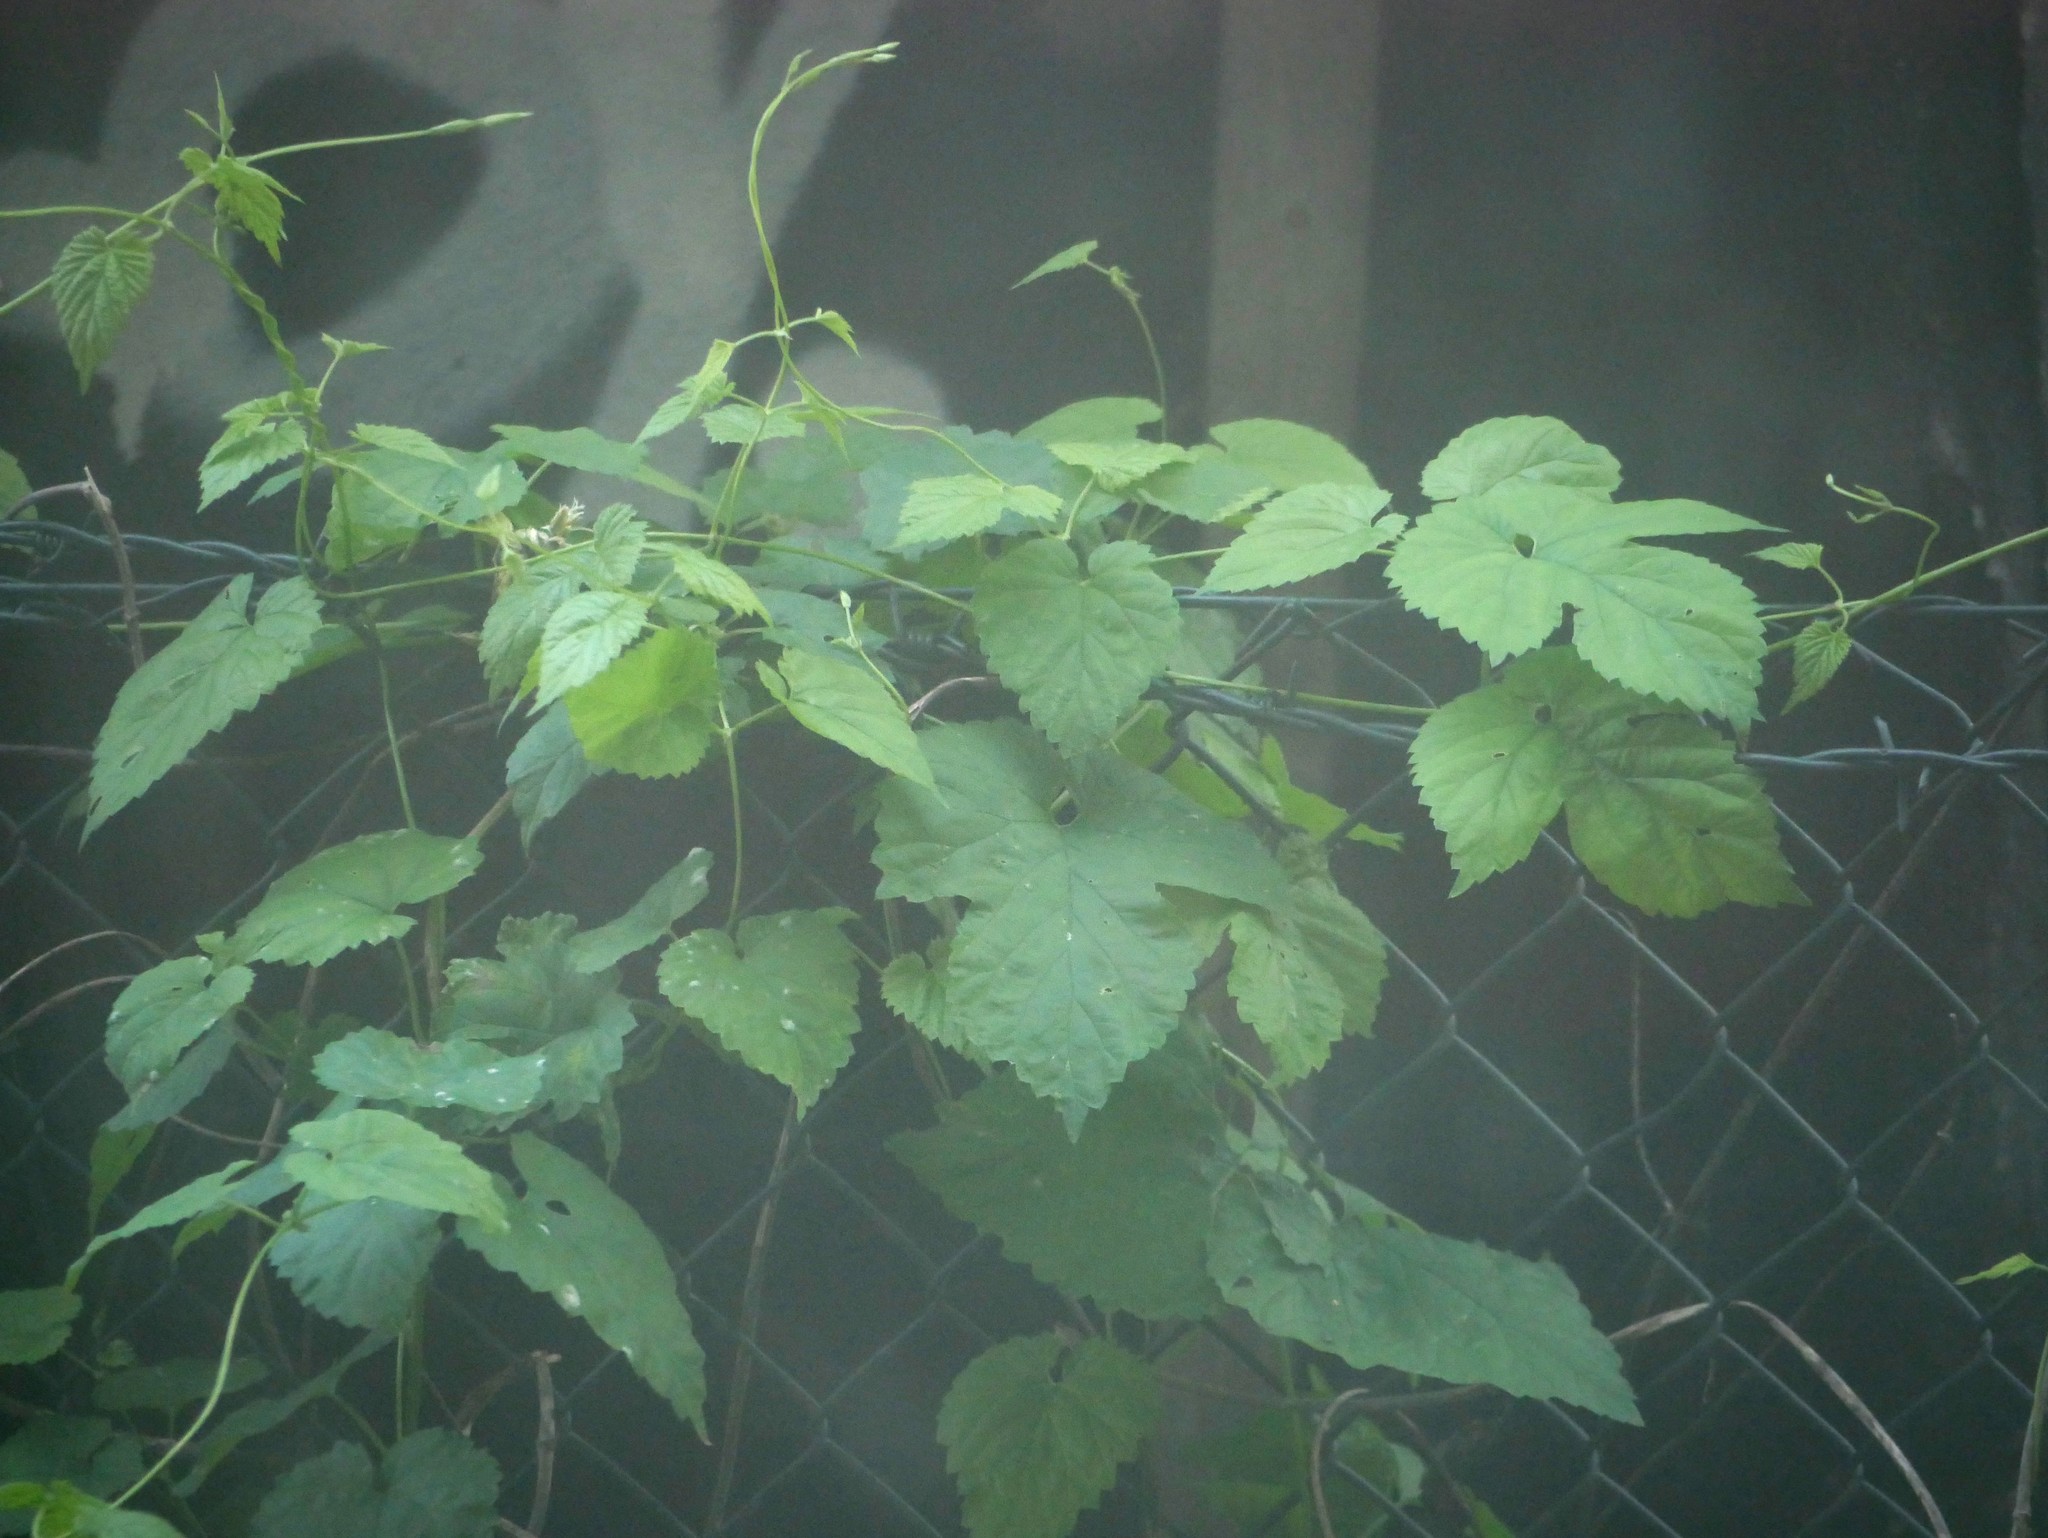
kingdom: Plantae
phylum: Tracheophyta
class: Magnoliopsida
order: Rosales
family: Cannabaceae
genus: Humulus
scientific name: Humulus lupulus
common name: Hop
